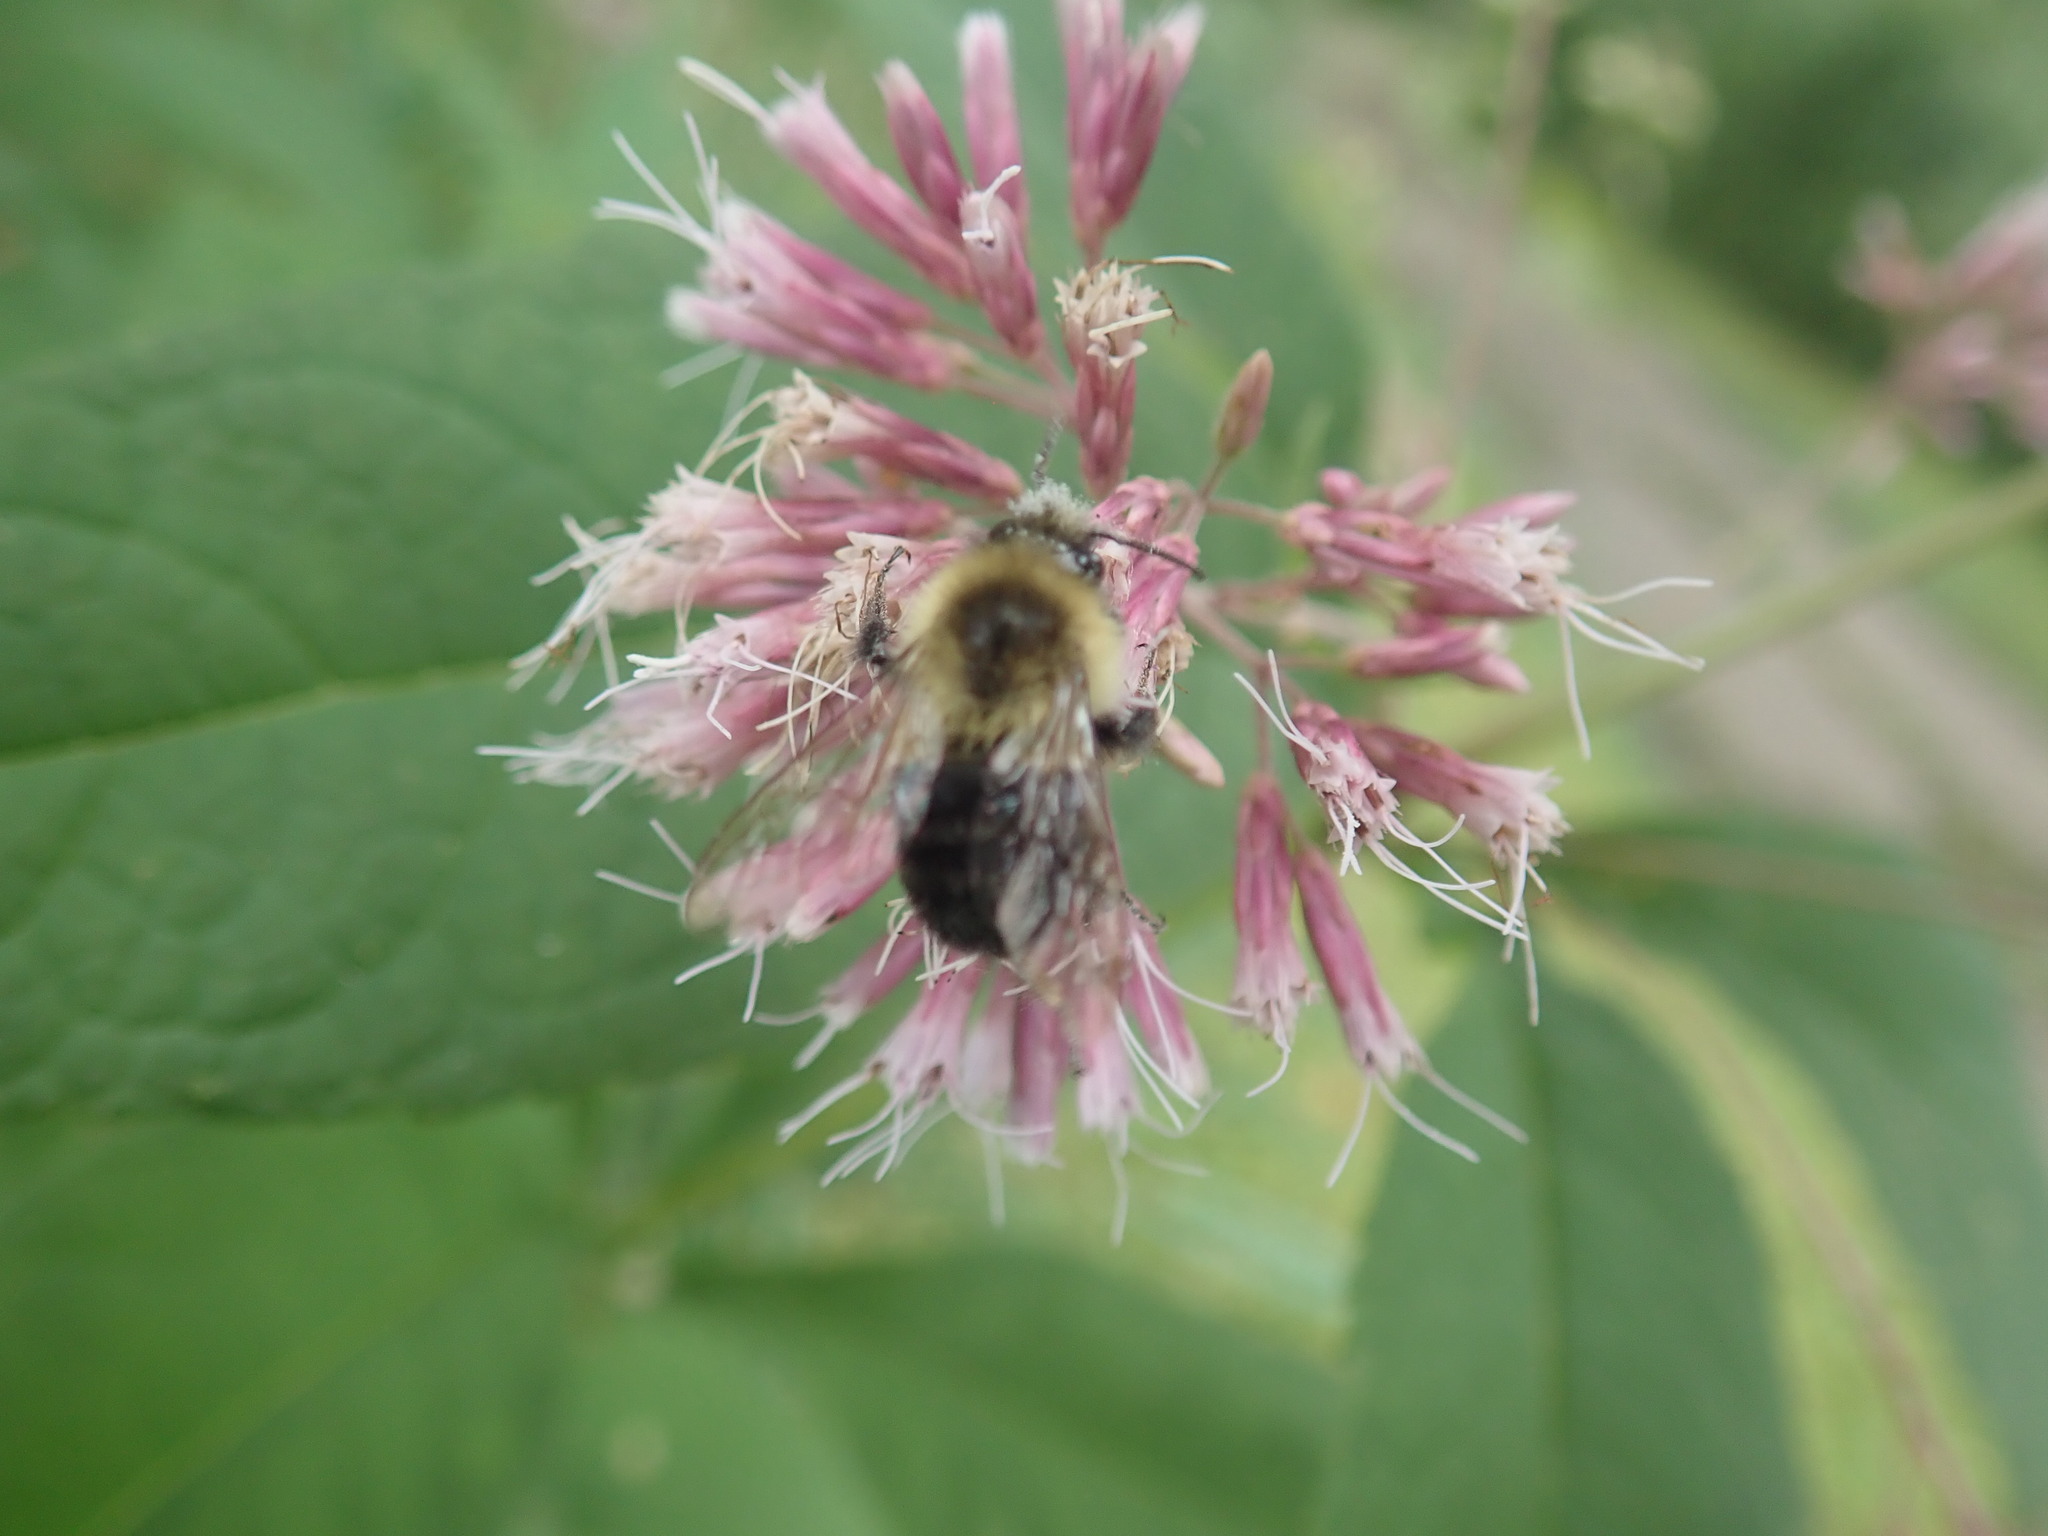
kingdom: Animalia
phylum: Arthropoda
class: Insecta
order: Hymenoptera
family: Apidae
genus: Bombus
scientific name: Bombus impatiens
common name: Common eastern bumble bee
